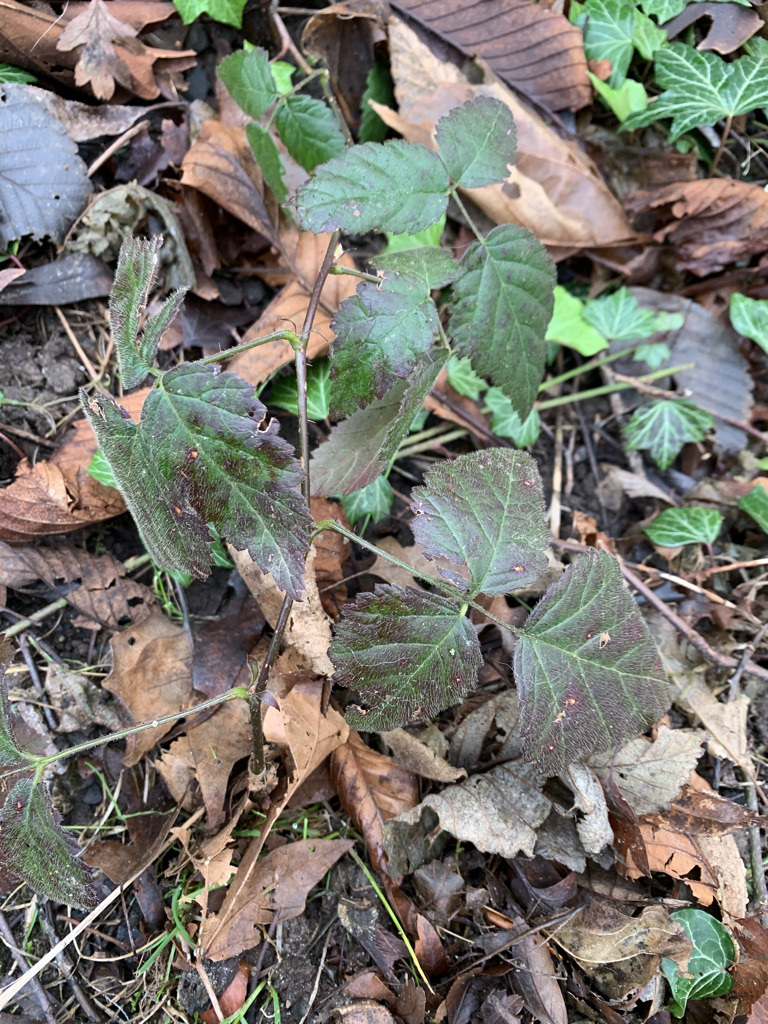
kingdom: Plantae
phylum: Tracheophyta
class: Magnoliopsida
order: Rosales
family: Rosaceae
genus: Rubus
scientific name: Rubus ursinus
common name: Pacific blackberry
